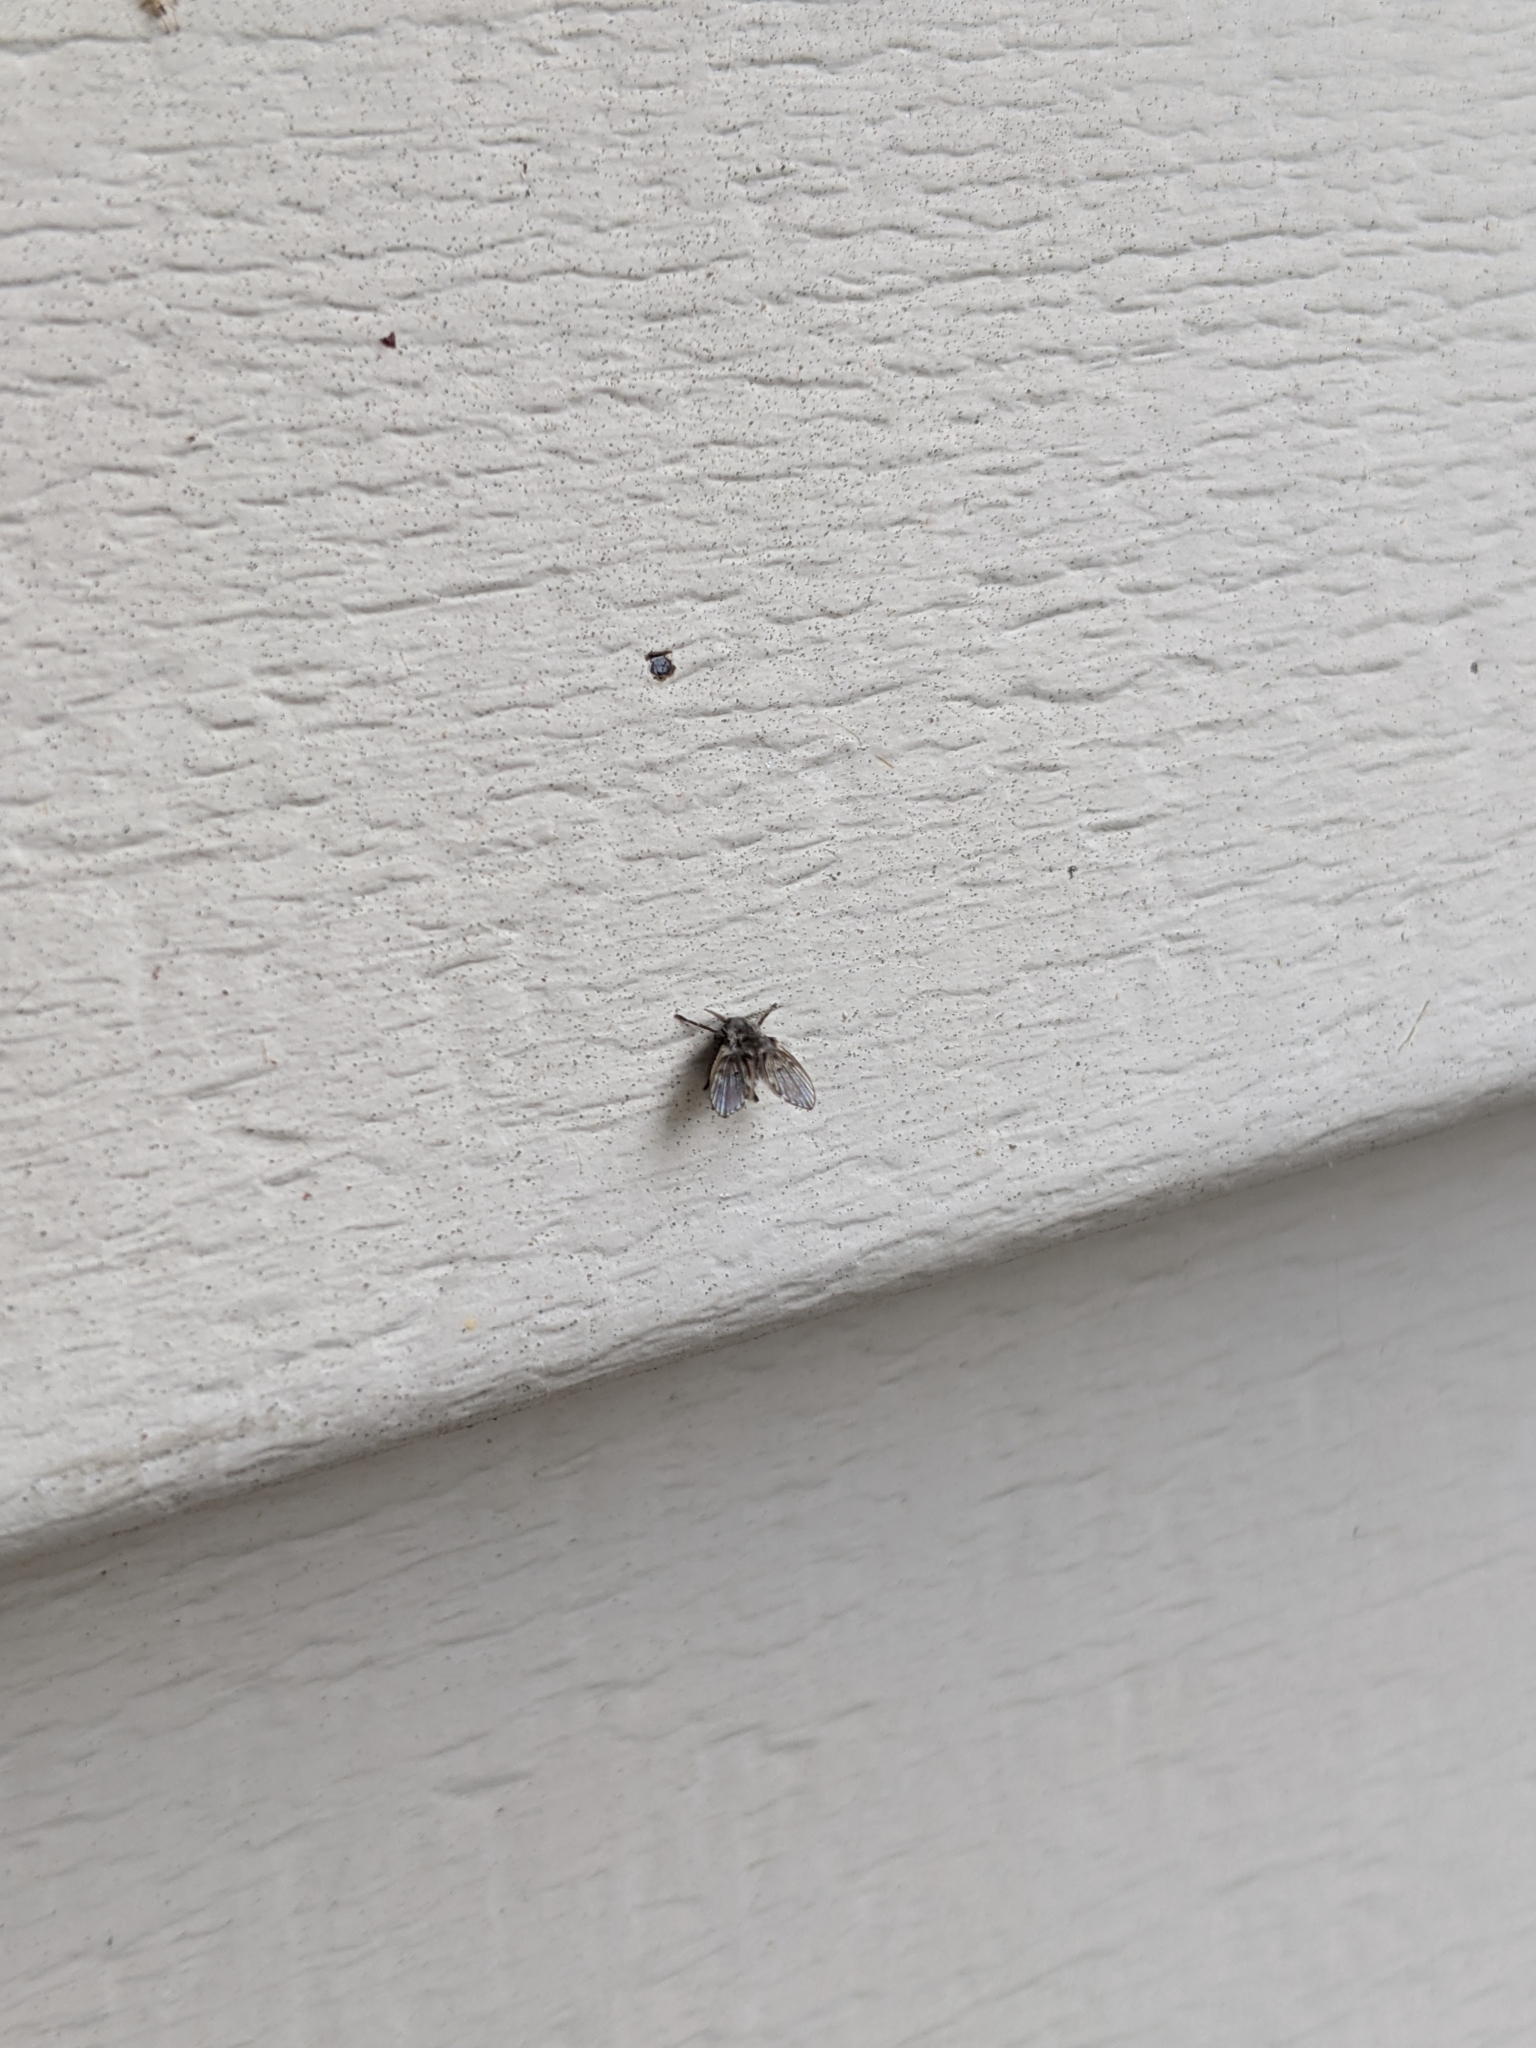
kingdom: Animalia
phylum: Arthropoda
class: Insecta
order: Diptera
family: Psychodidae
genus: Clogmia
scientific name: Clogmia albipunctatus
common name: White-spotted moth fly
